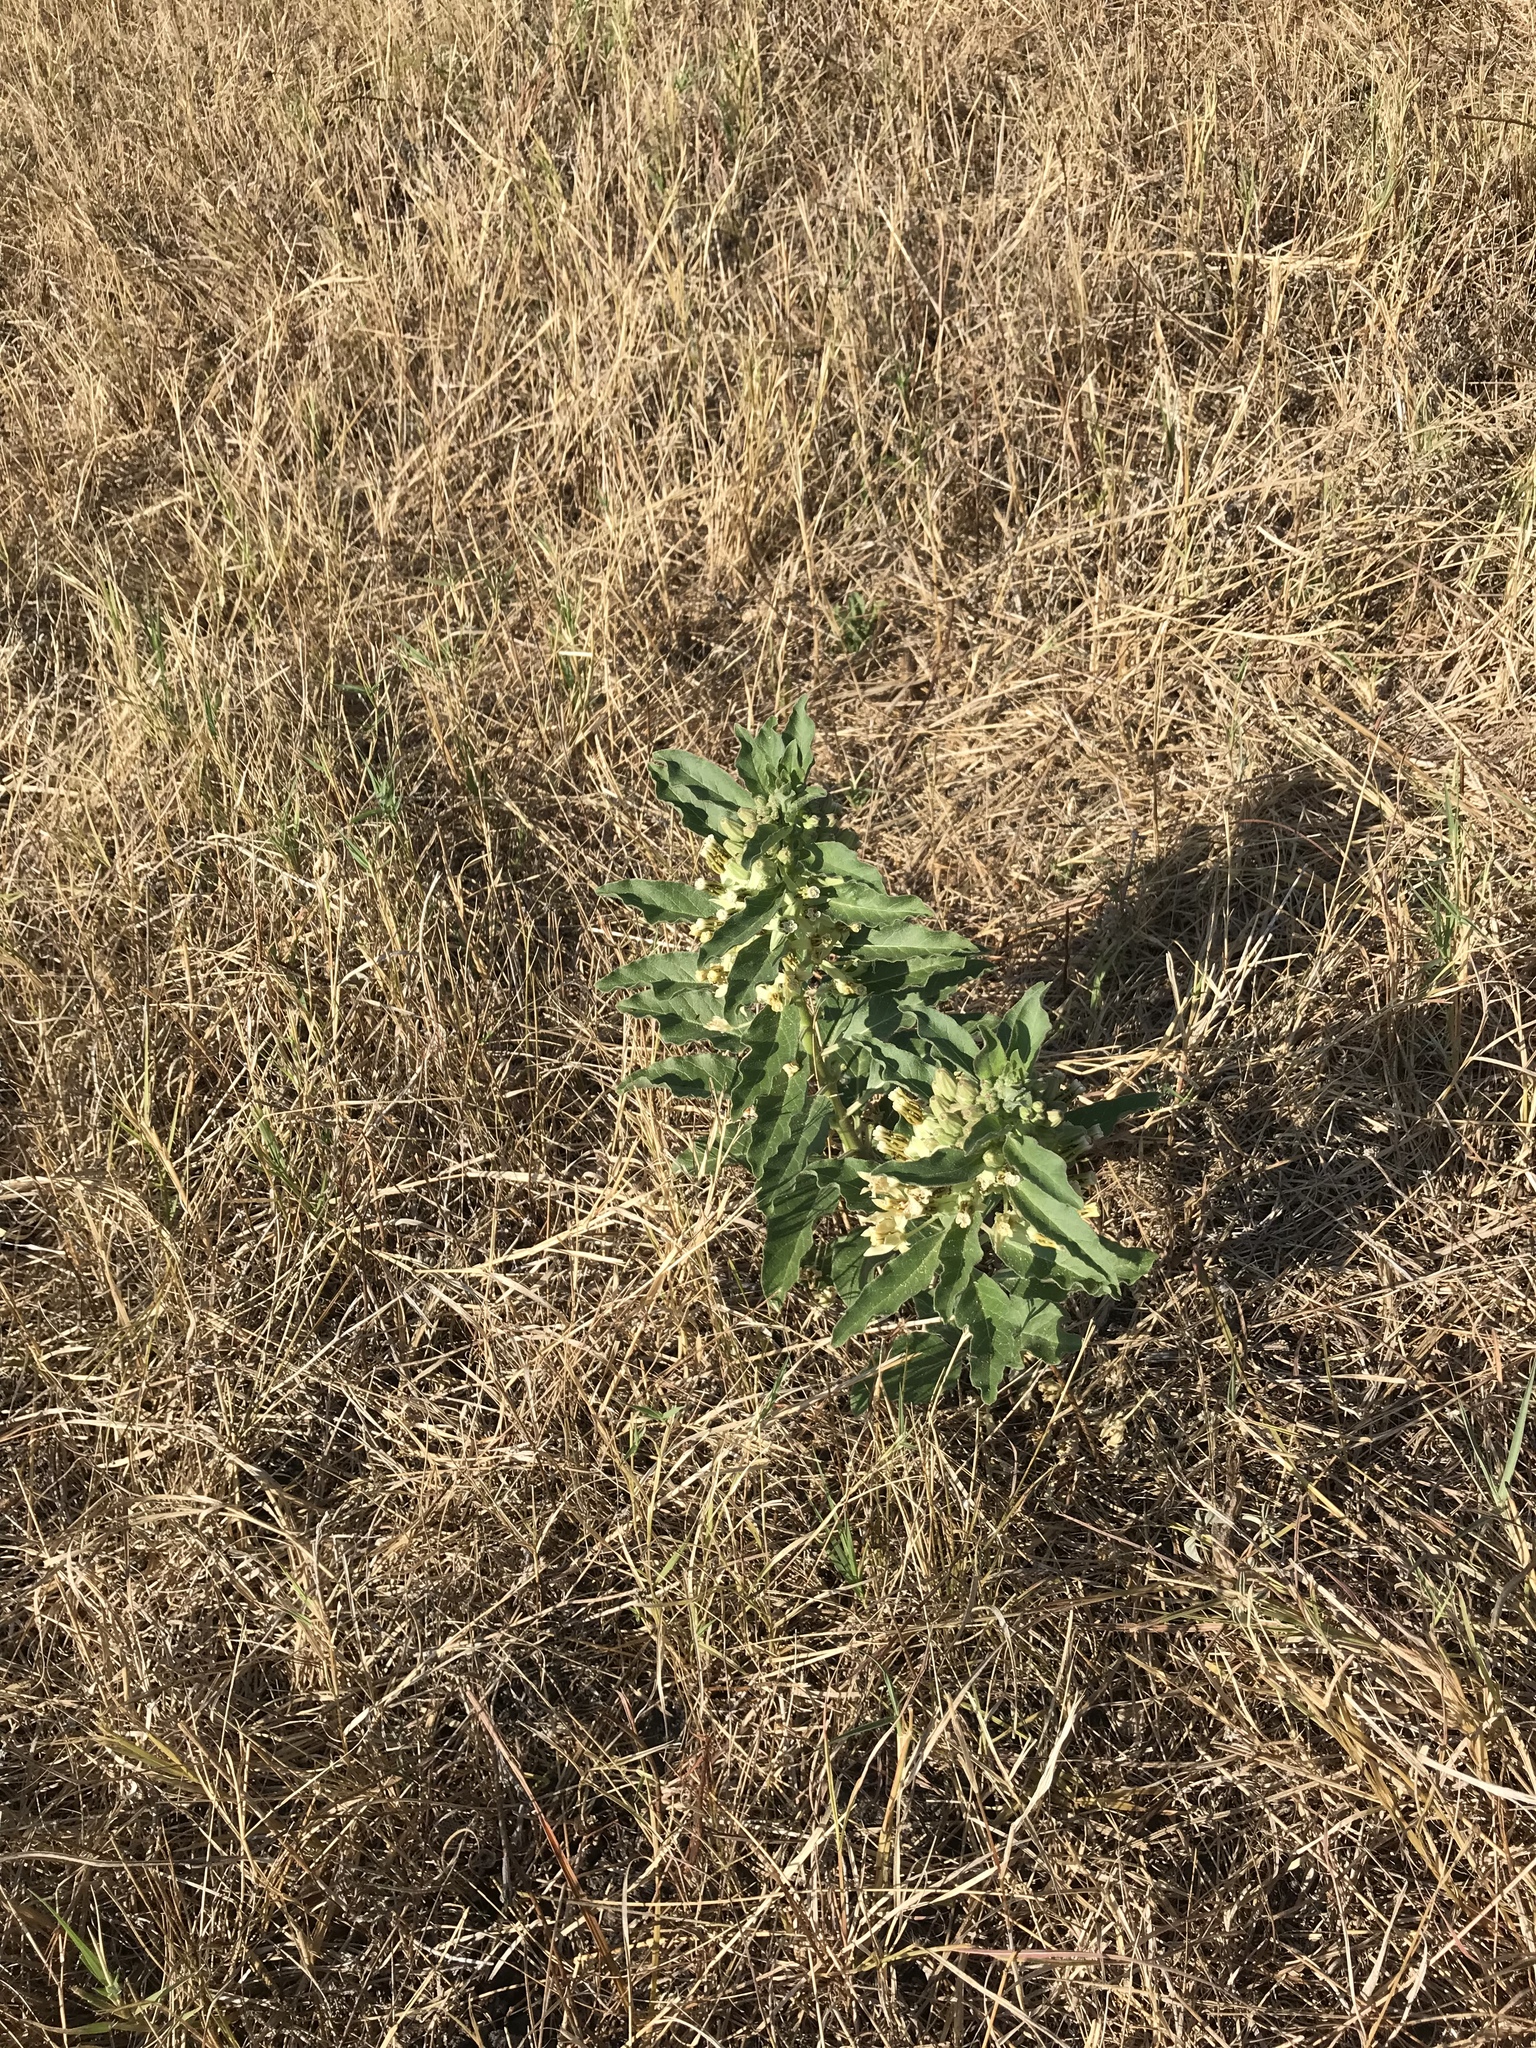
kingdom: Plantae
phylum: Tracheophyta
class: Magnoliopsida
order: Gentianales
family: Apocynaceae
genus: Asclepias
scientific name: Asclepias oenotheroides
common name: Zizotes milkweed
